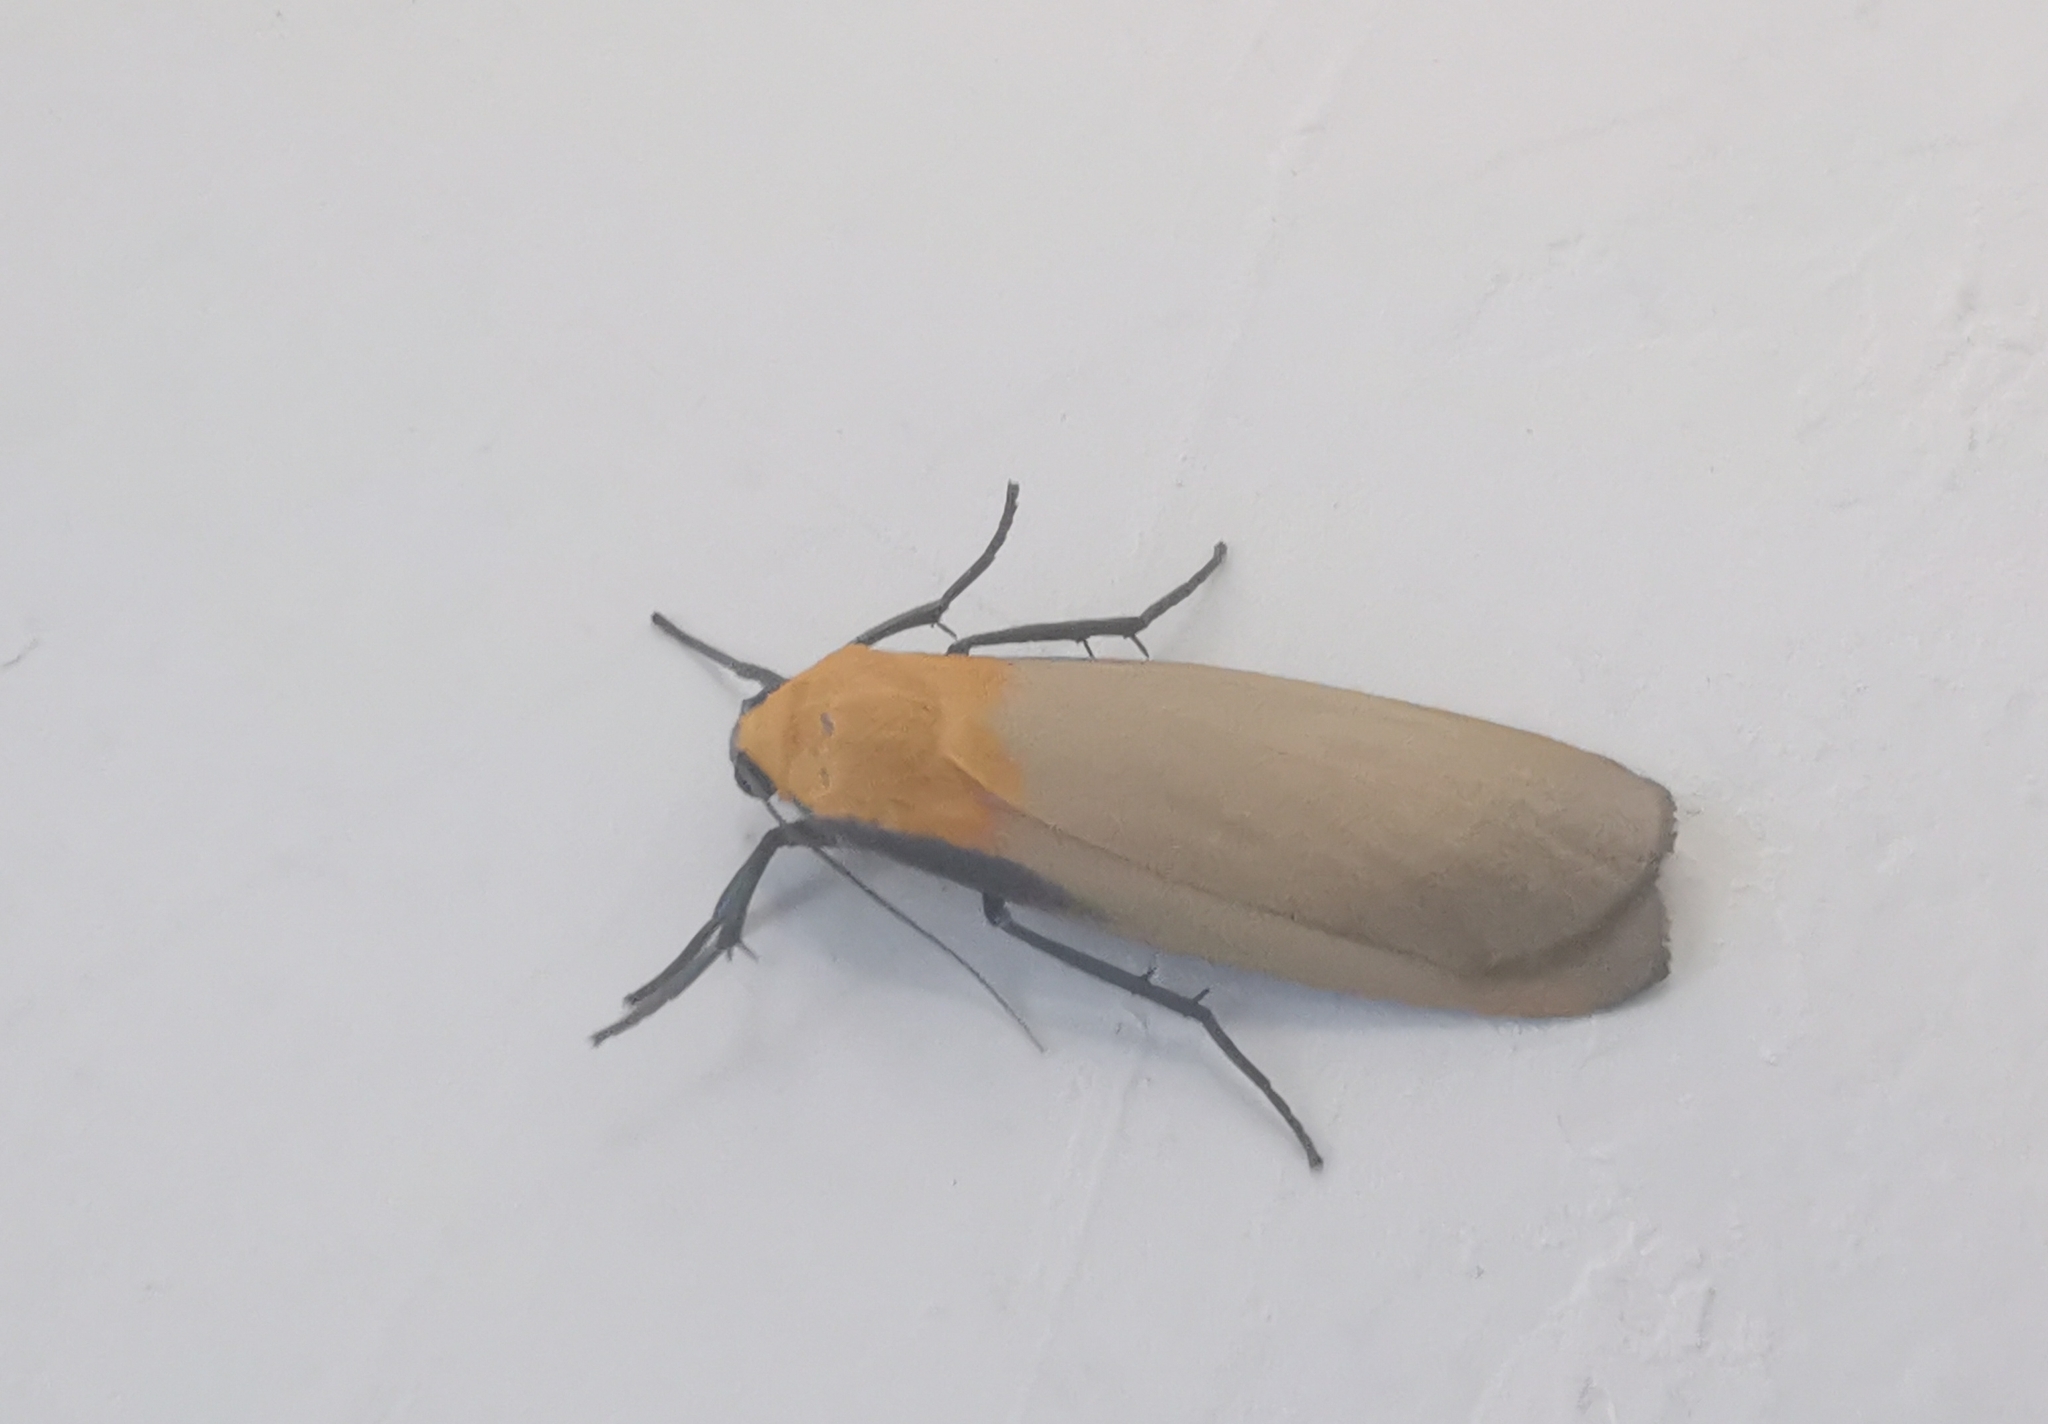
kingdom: Animalia
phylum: Arthropoda
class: Insecta
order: Lepidoptera
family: Erebidae
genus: Lithosia
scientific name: Lithosia quadra
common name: Four-spotted footman
